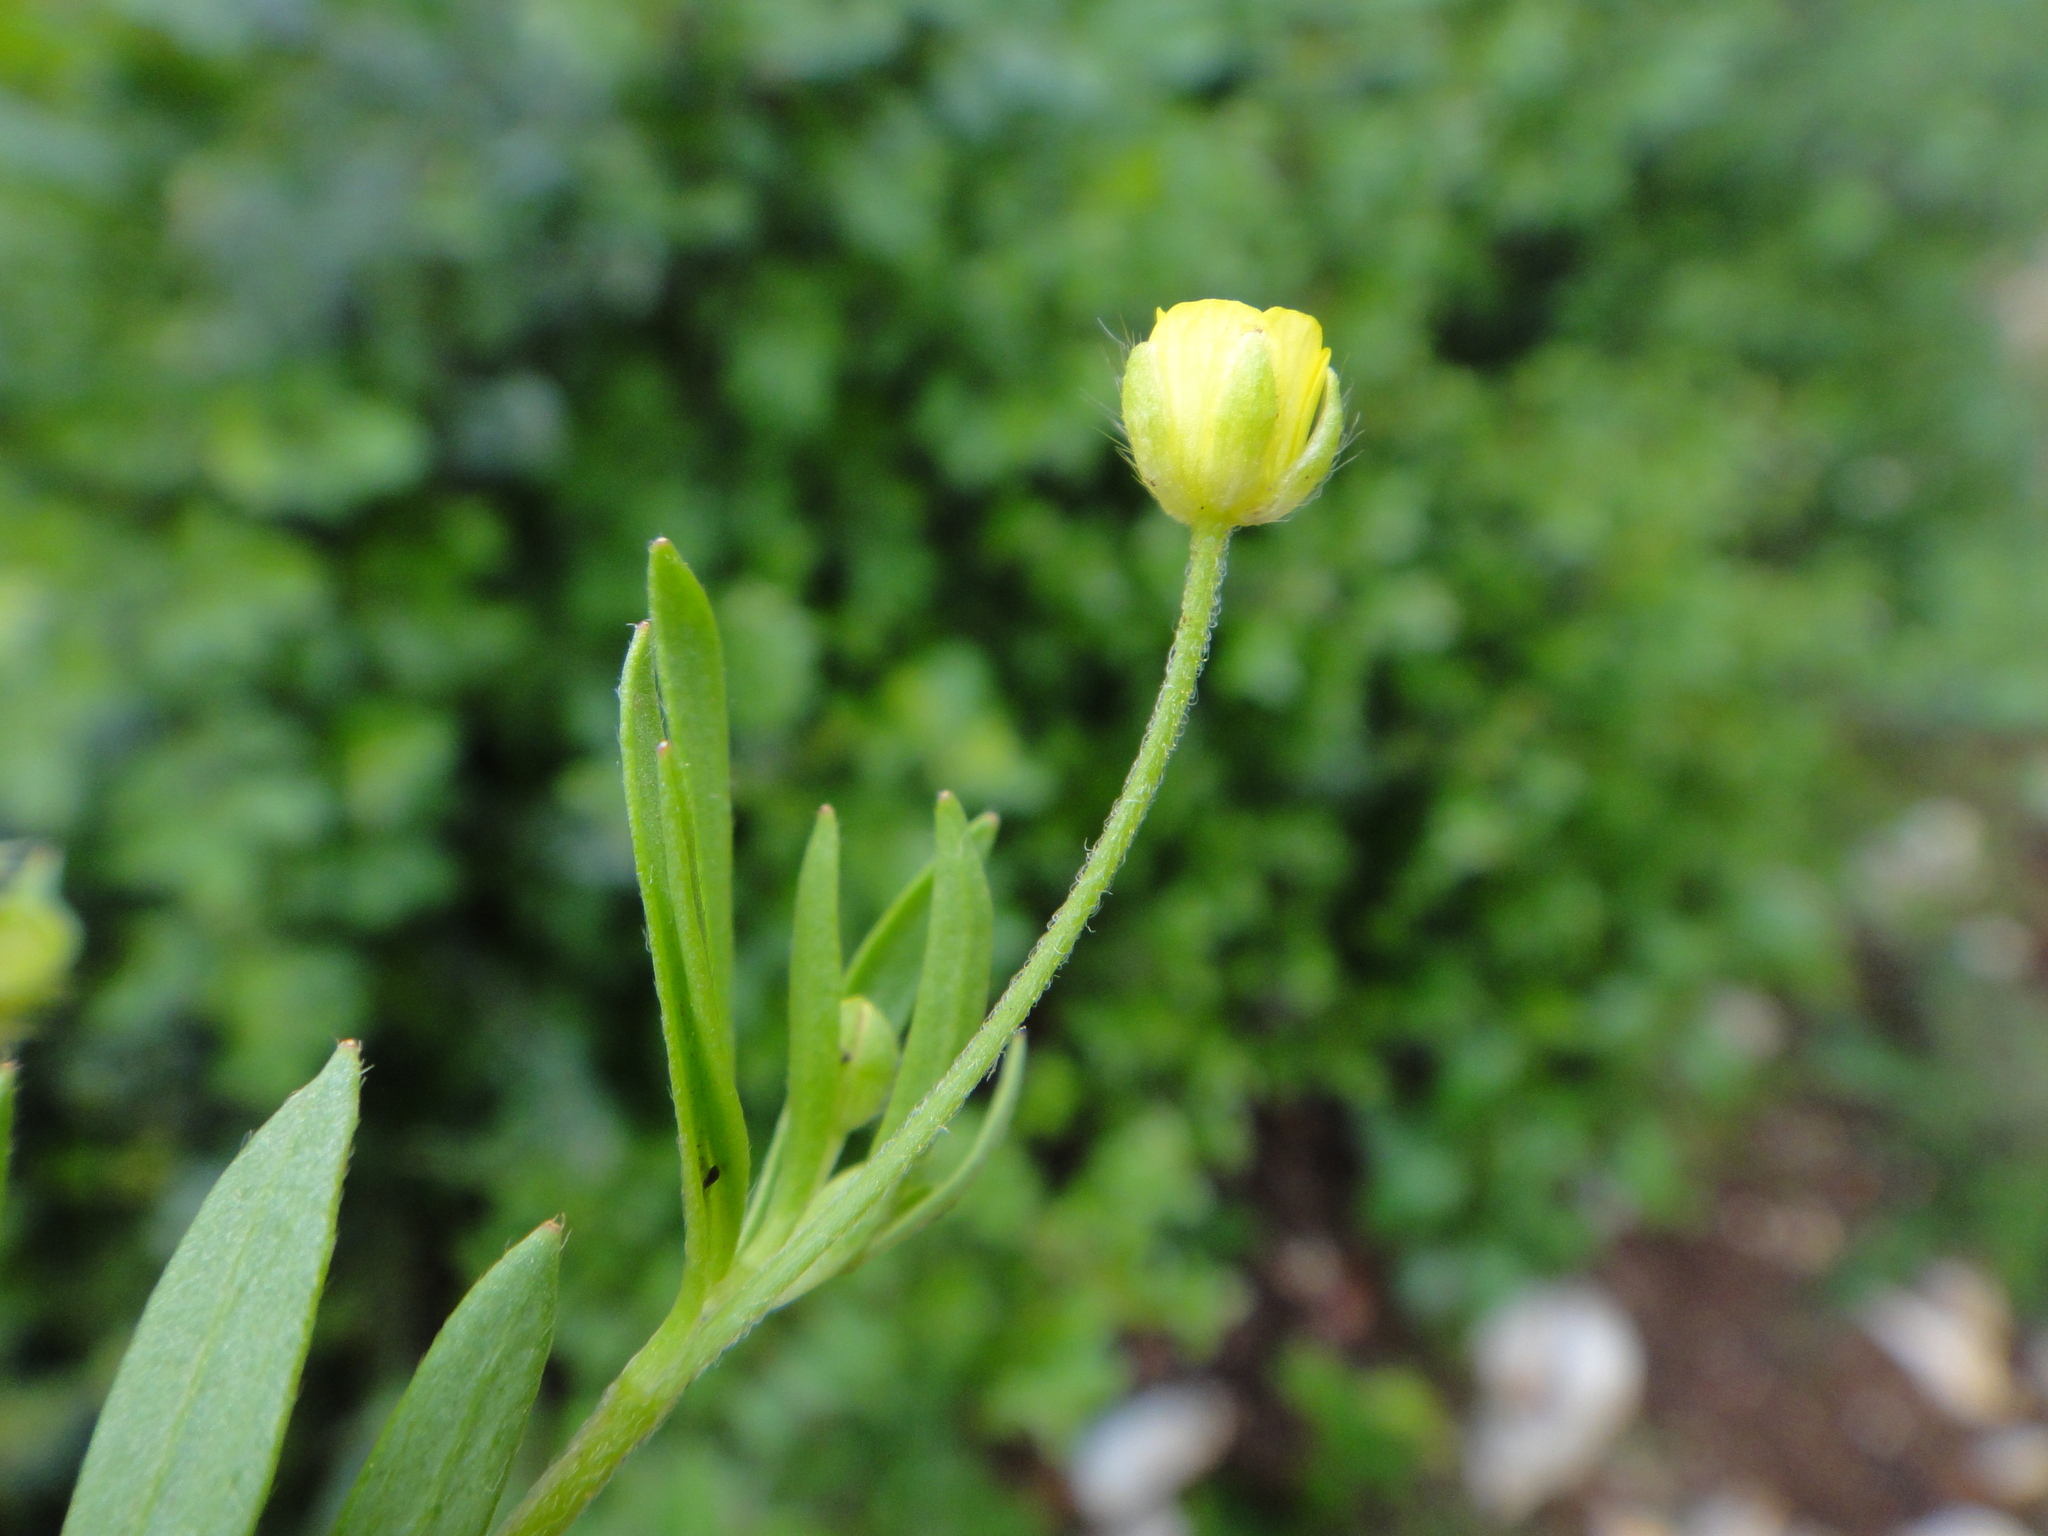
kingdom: Plantae
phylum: Tracheophyta
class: Magnoliopsida
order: Ranunculales
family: Ranunculaceae
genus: Ranunculus
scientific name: Ranunculus arvensis
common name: Corn buttercup
